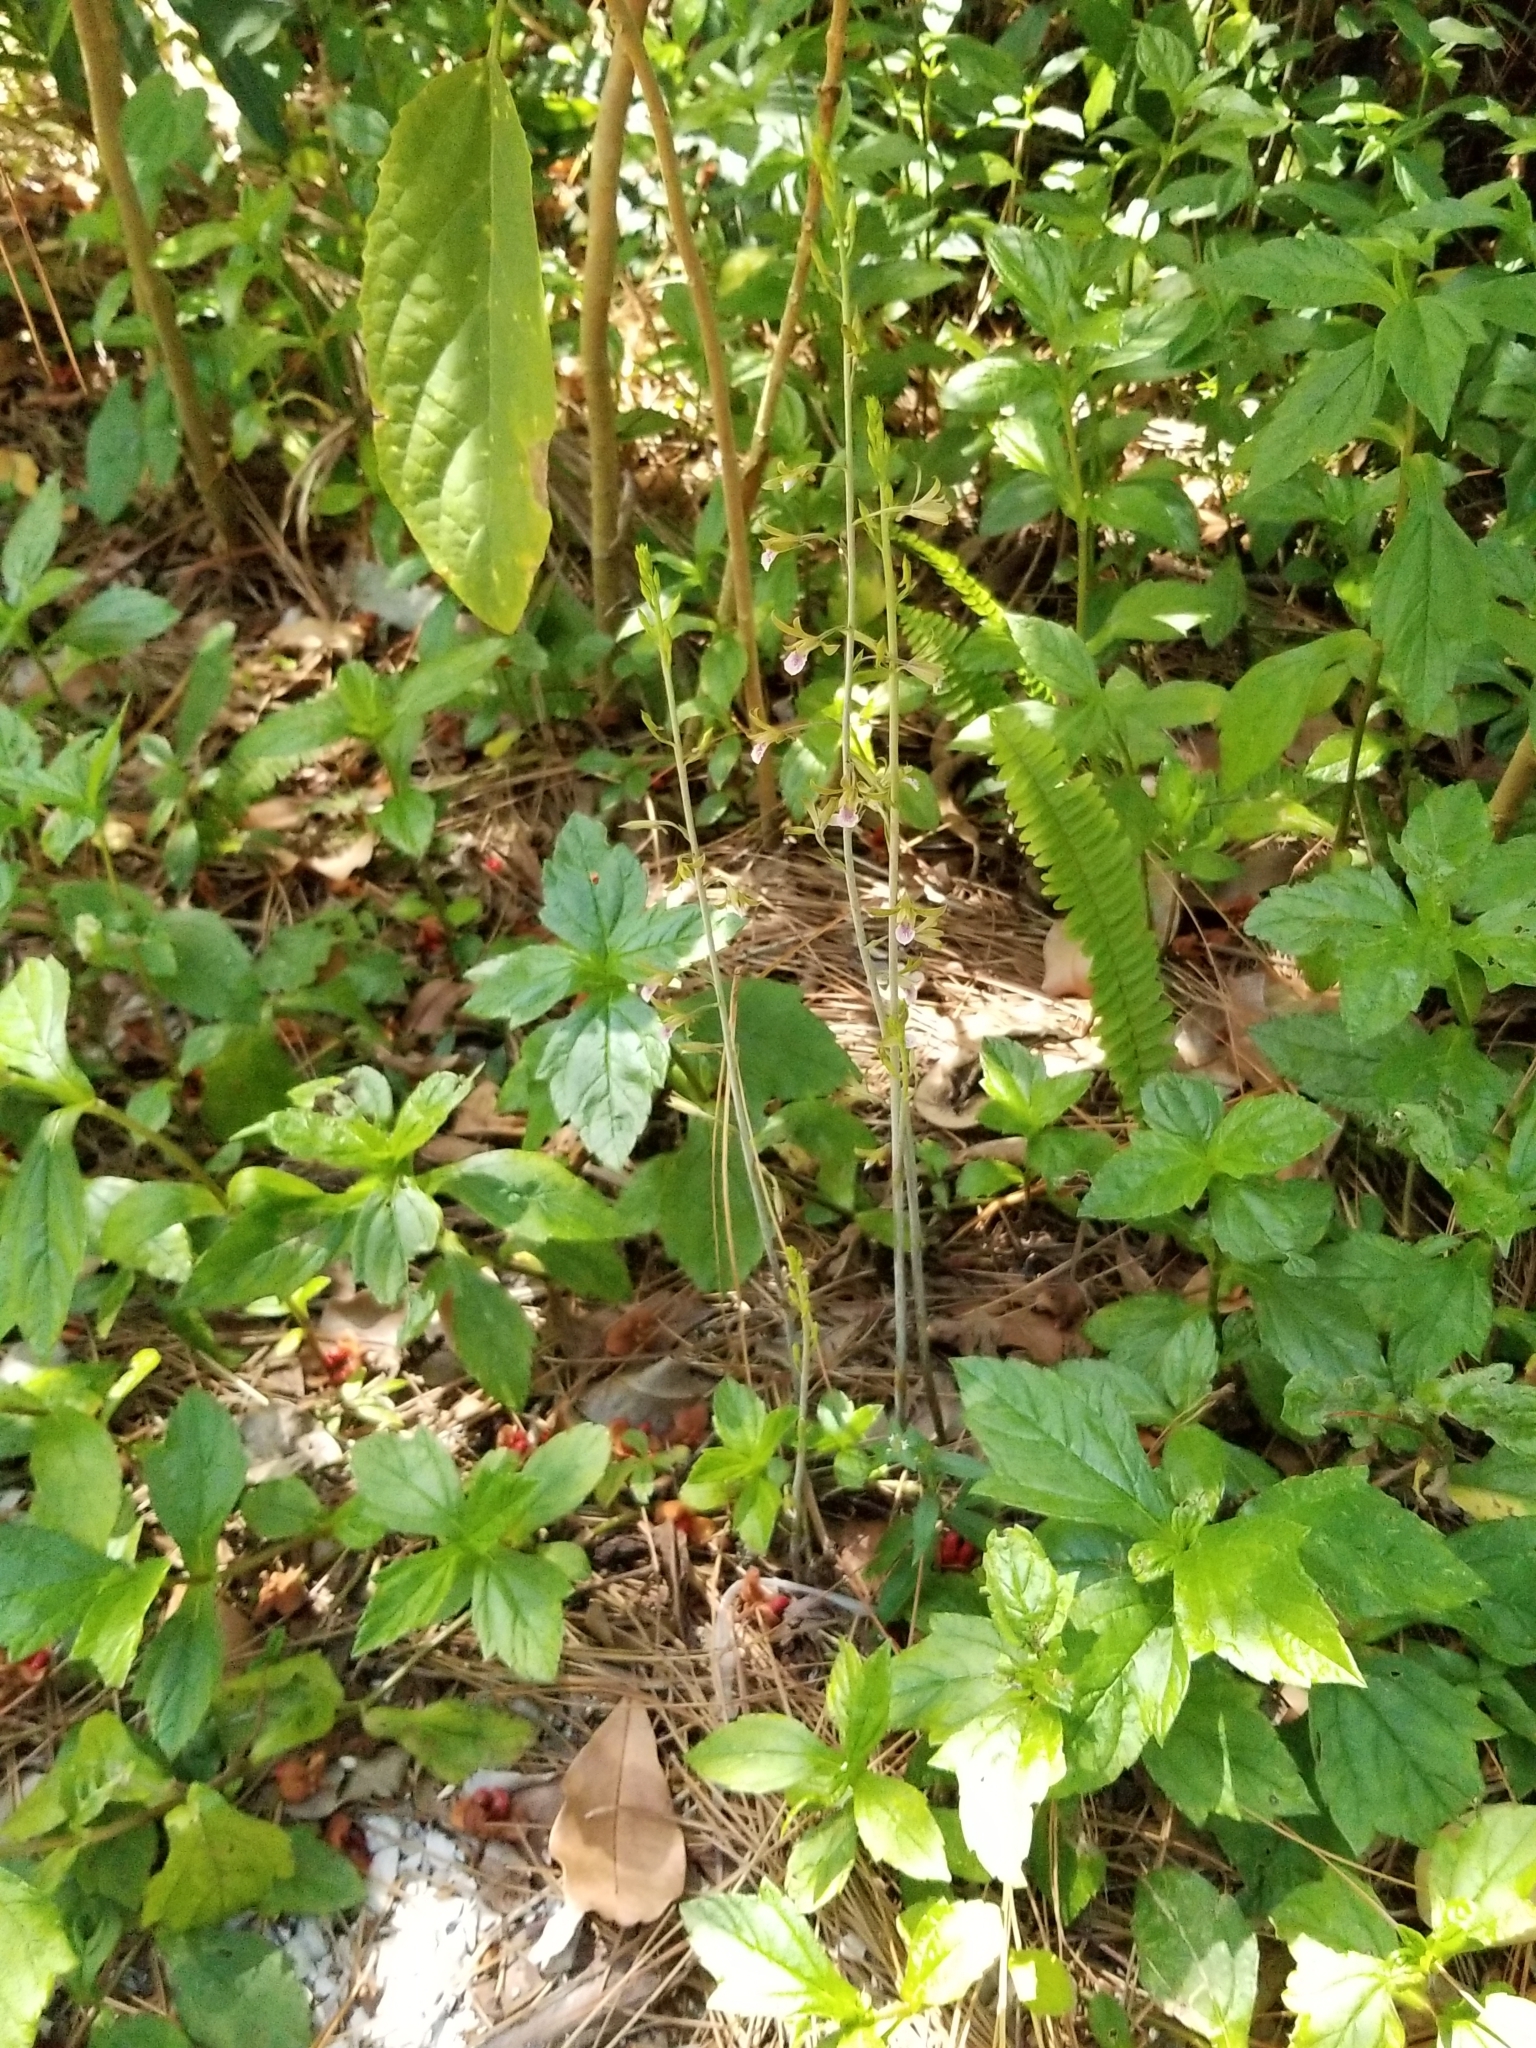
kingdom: Plantae
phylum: Tracheophyta
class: Liliopsida
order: Asparagales
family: Orchidaceae
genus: Eulophia
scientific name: Eulophia graminea
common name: Orchid
